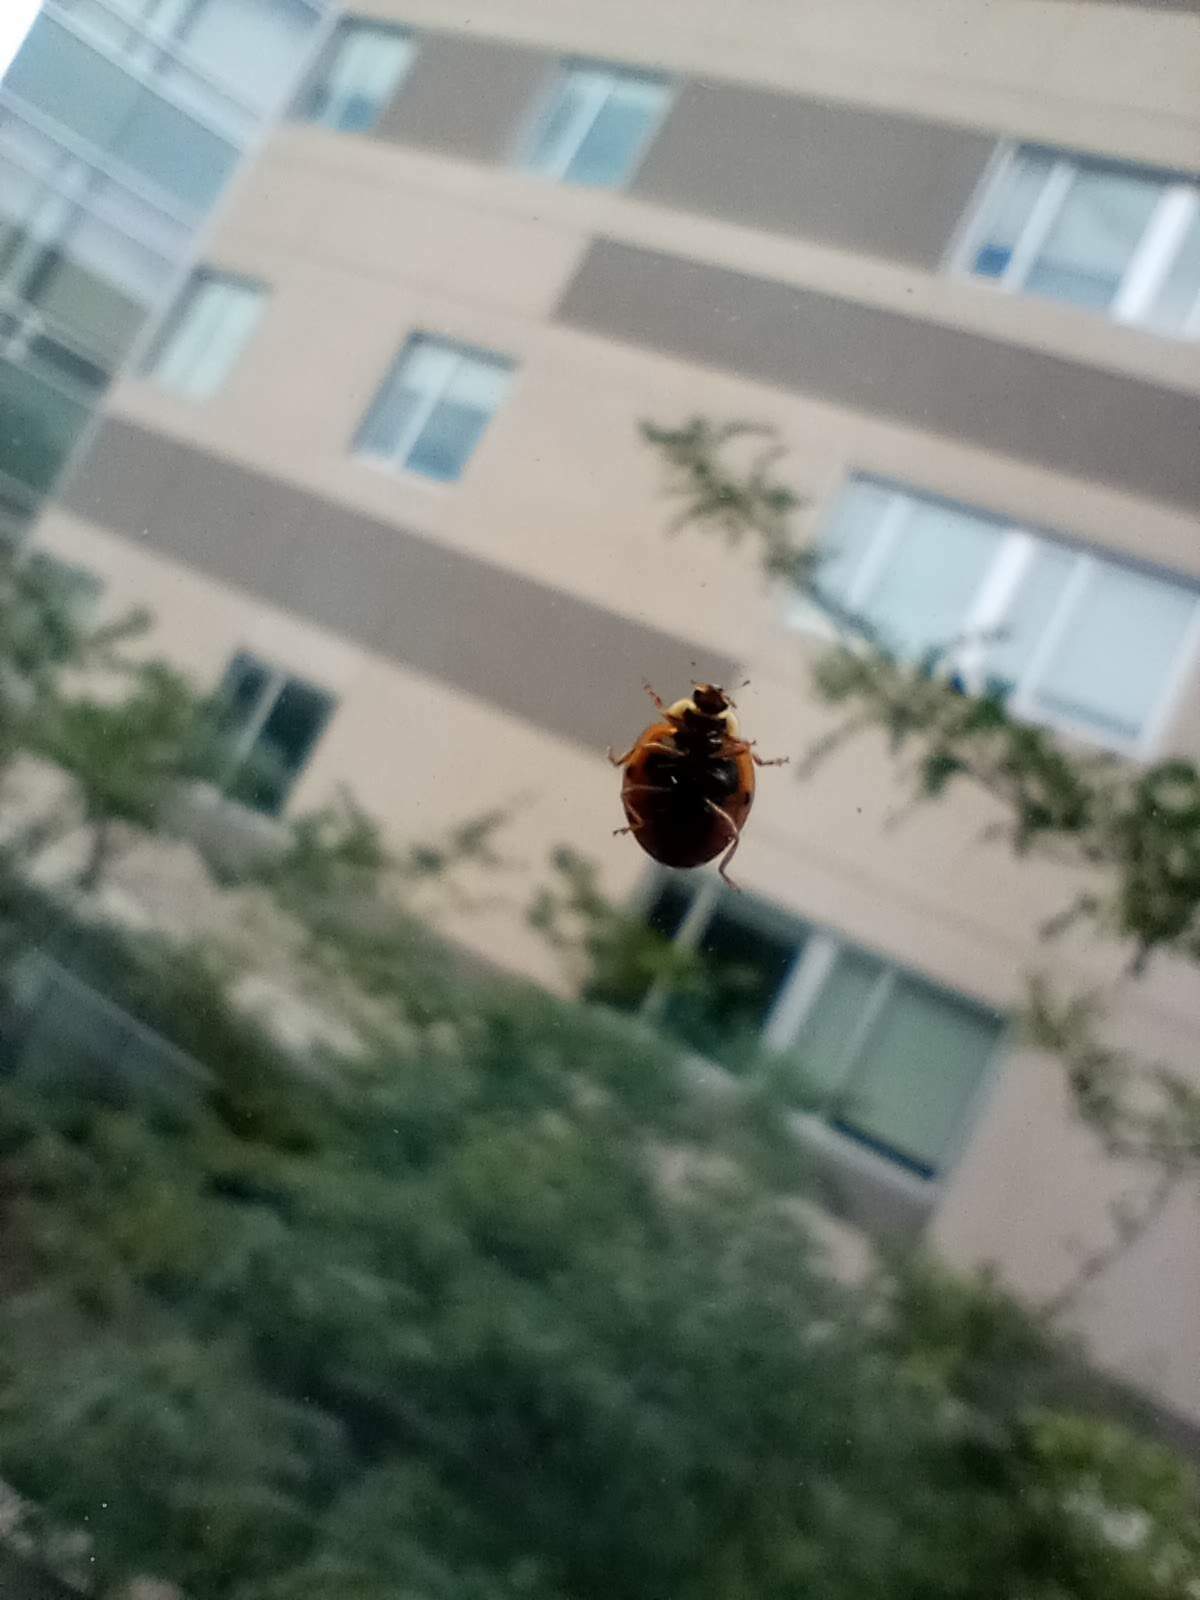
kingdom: Animalia
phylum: Arthropoda
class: Insecta
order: Coleoptera
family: Coccinellidae
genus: Harmonia
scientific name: Harmonia axyridis
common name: Harlequin ladybird
